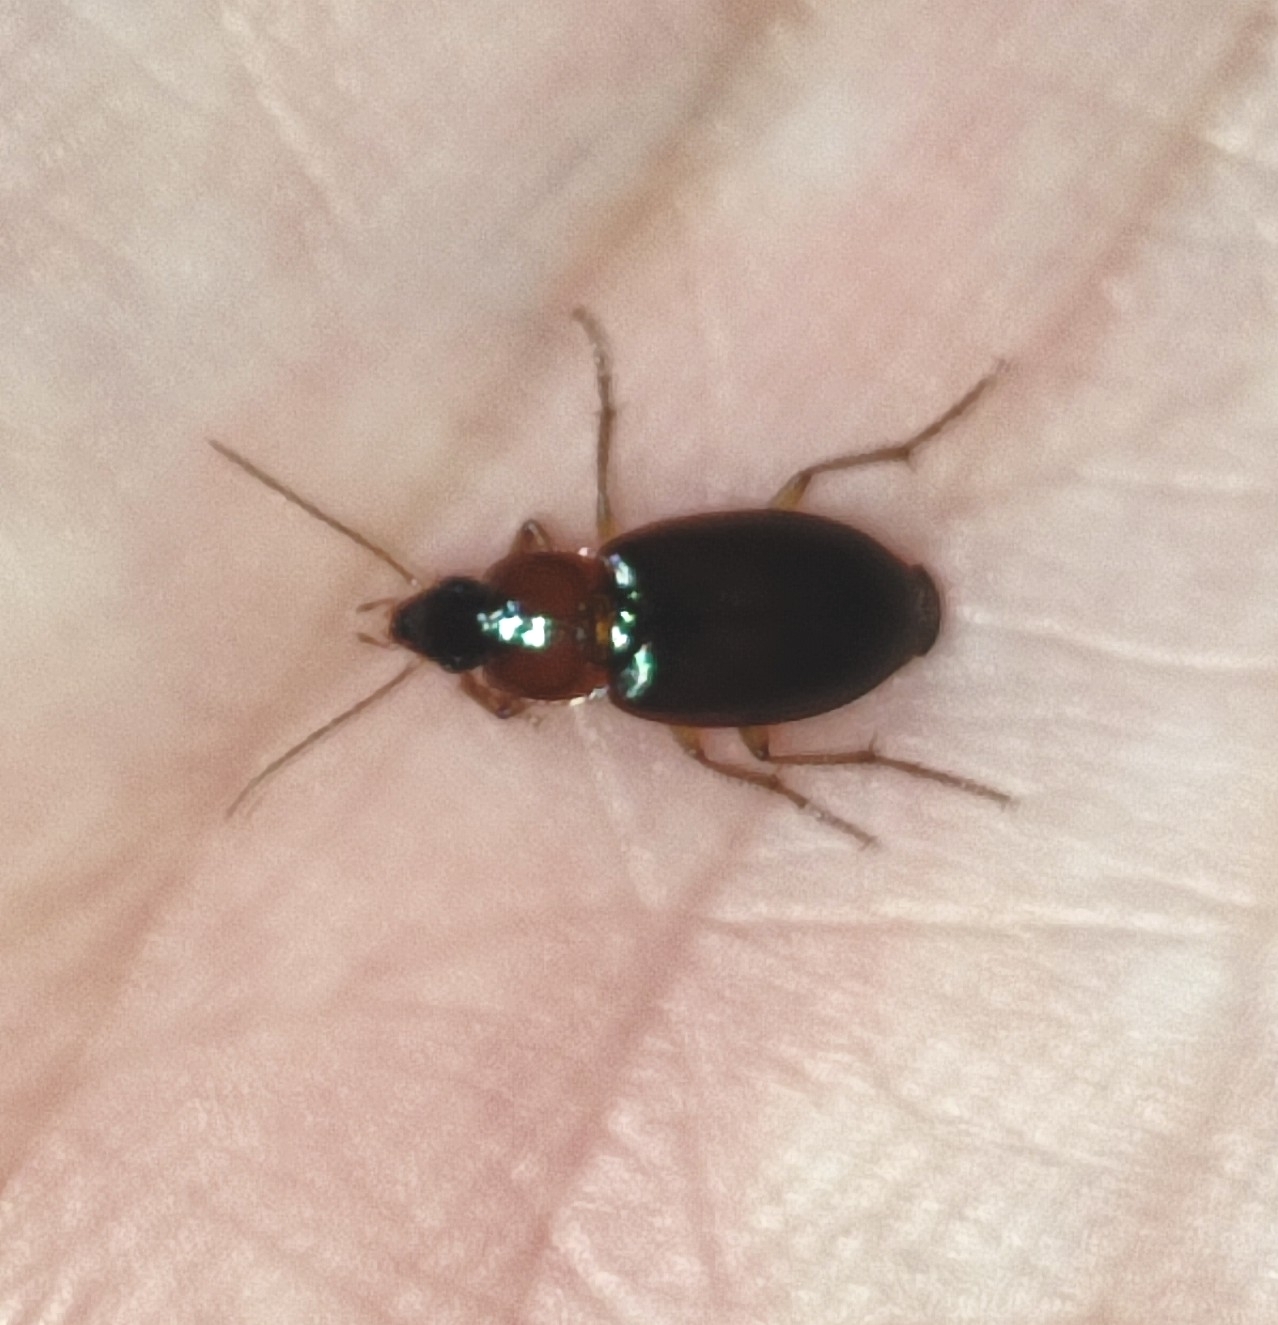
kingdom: Animalia
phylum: Arthropoda
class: Insecta
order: Coleoptera
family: Carabidae
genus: Calathus
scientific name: Calathus melanocephalus
